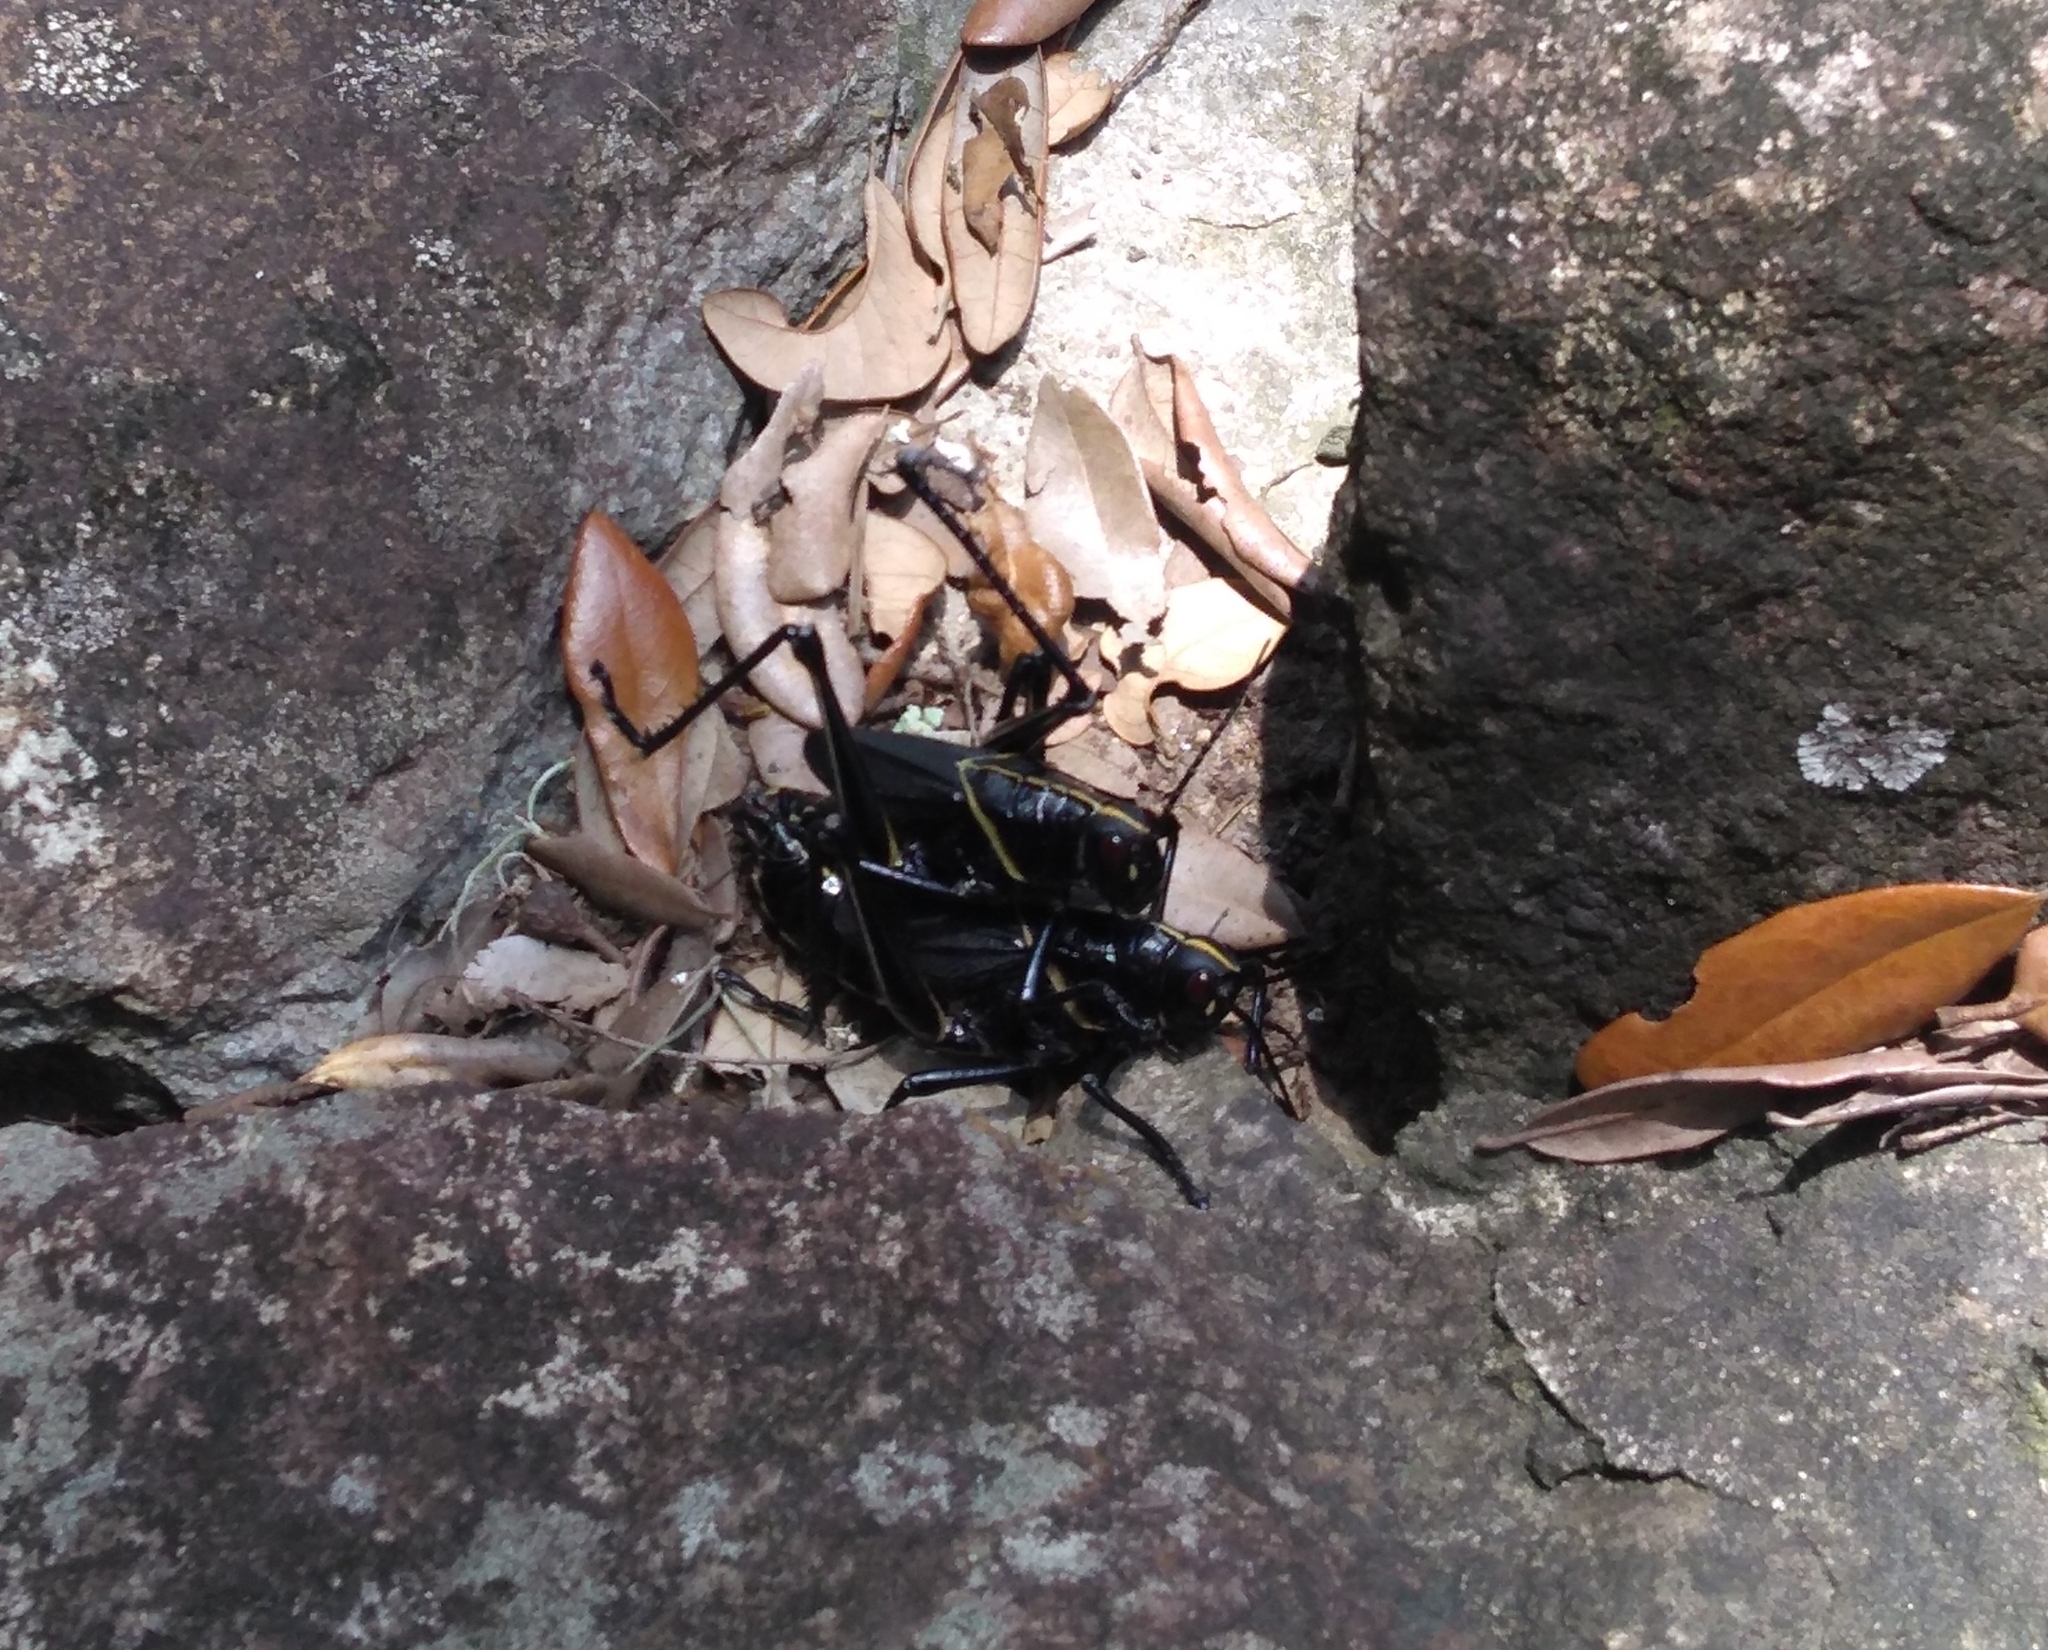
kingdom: Animalia
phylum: Arthropoda
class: Insecta
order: Orthoptera
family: Romaleidae
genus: Romalea
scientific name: Romalea microptera
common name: Eastern lubber grasshopper
